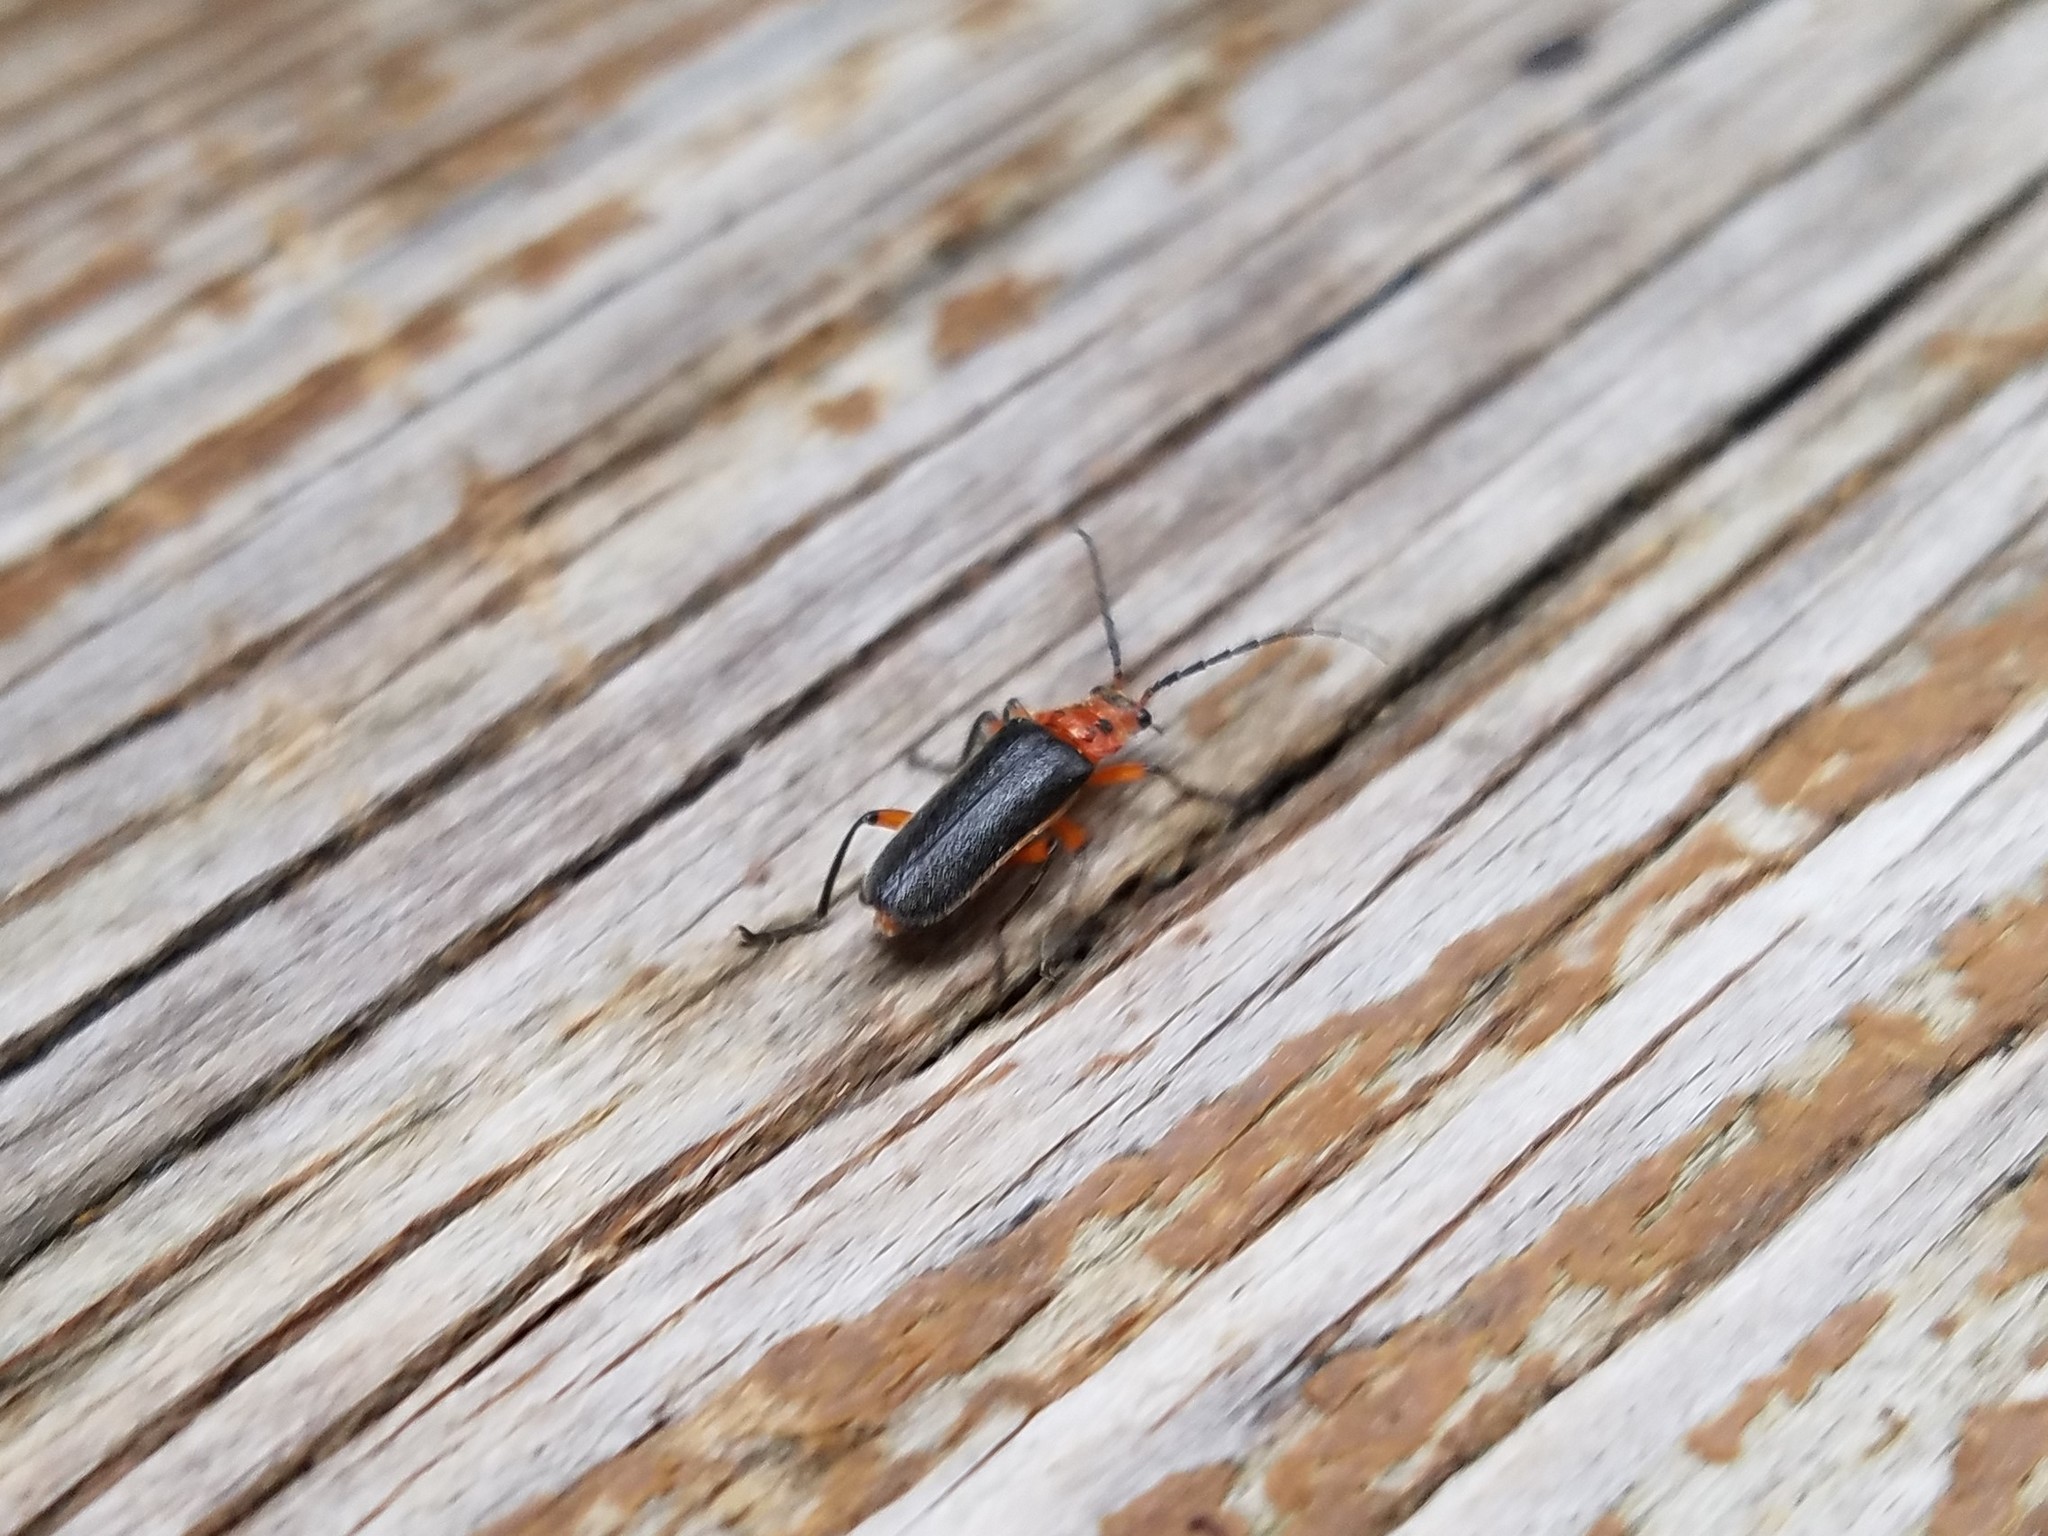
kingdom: Animalia
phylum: Arthropoda
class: Insecta
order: Coleoptera
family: Cantharidae
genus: Atalantycha
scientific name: Atalantycha bilineata
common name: Two-lined leatherwing
